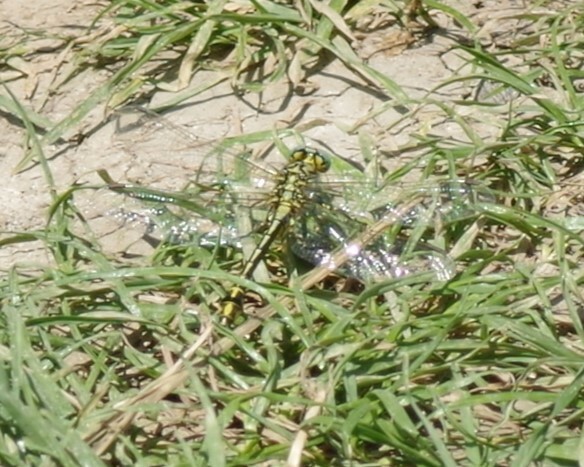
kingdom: Animalia
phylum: Arthropoda
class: Insecta
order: Odonata
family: Gomphidae
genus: Gomphus
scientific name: Gomphus simillimus
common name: Yellow clubtail
